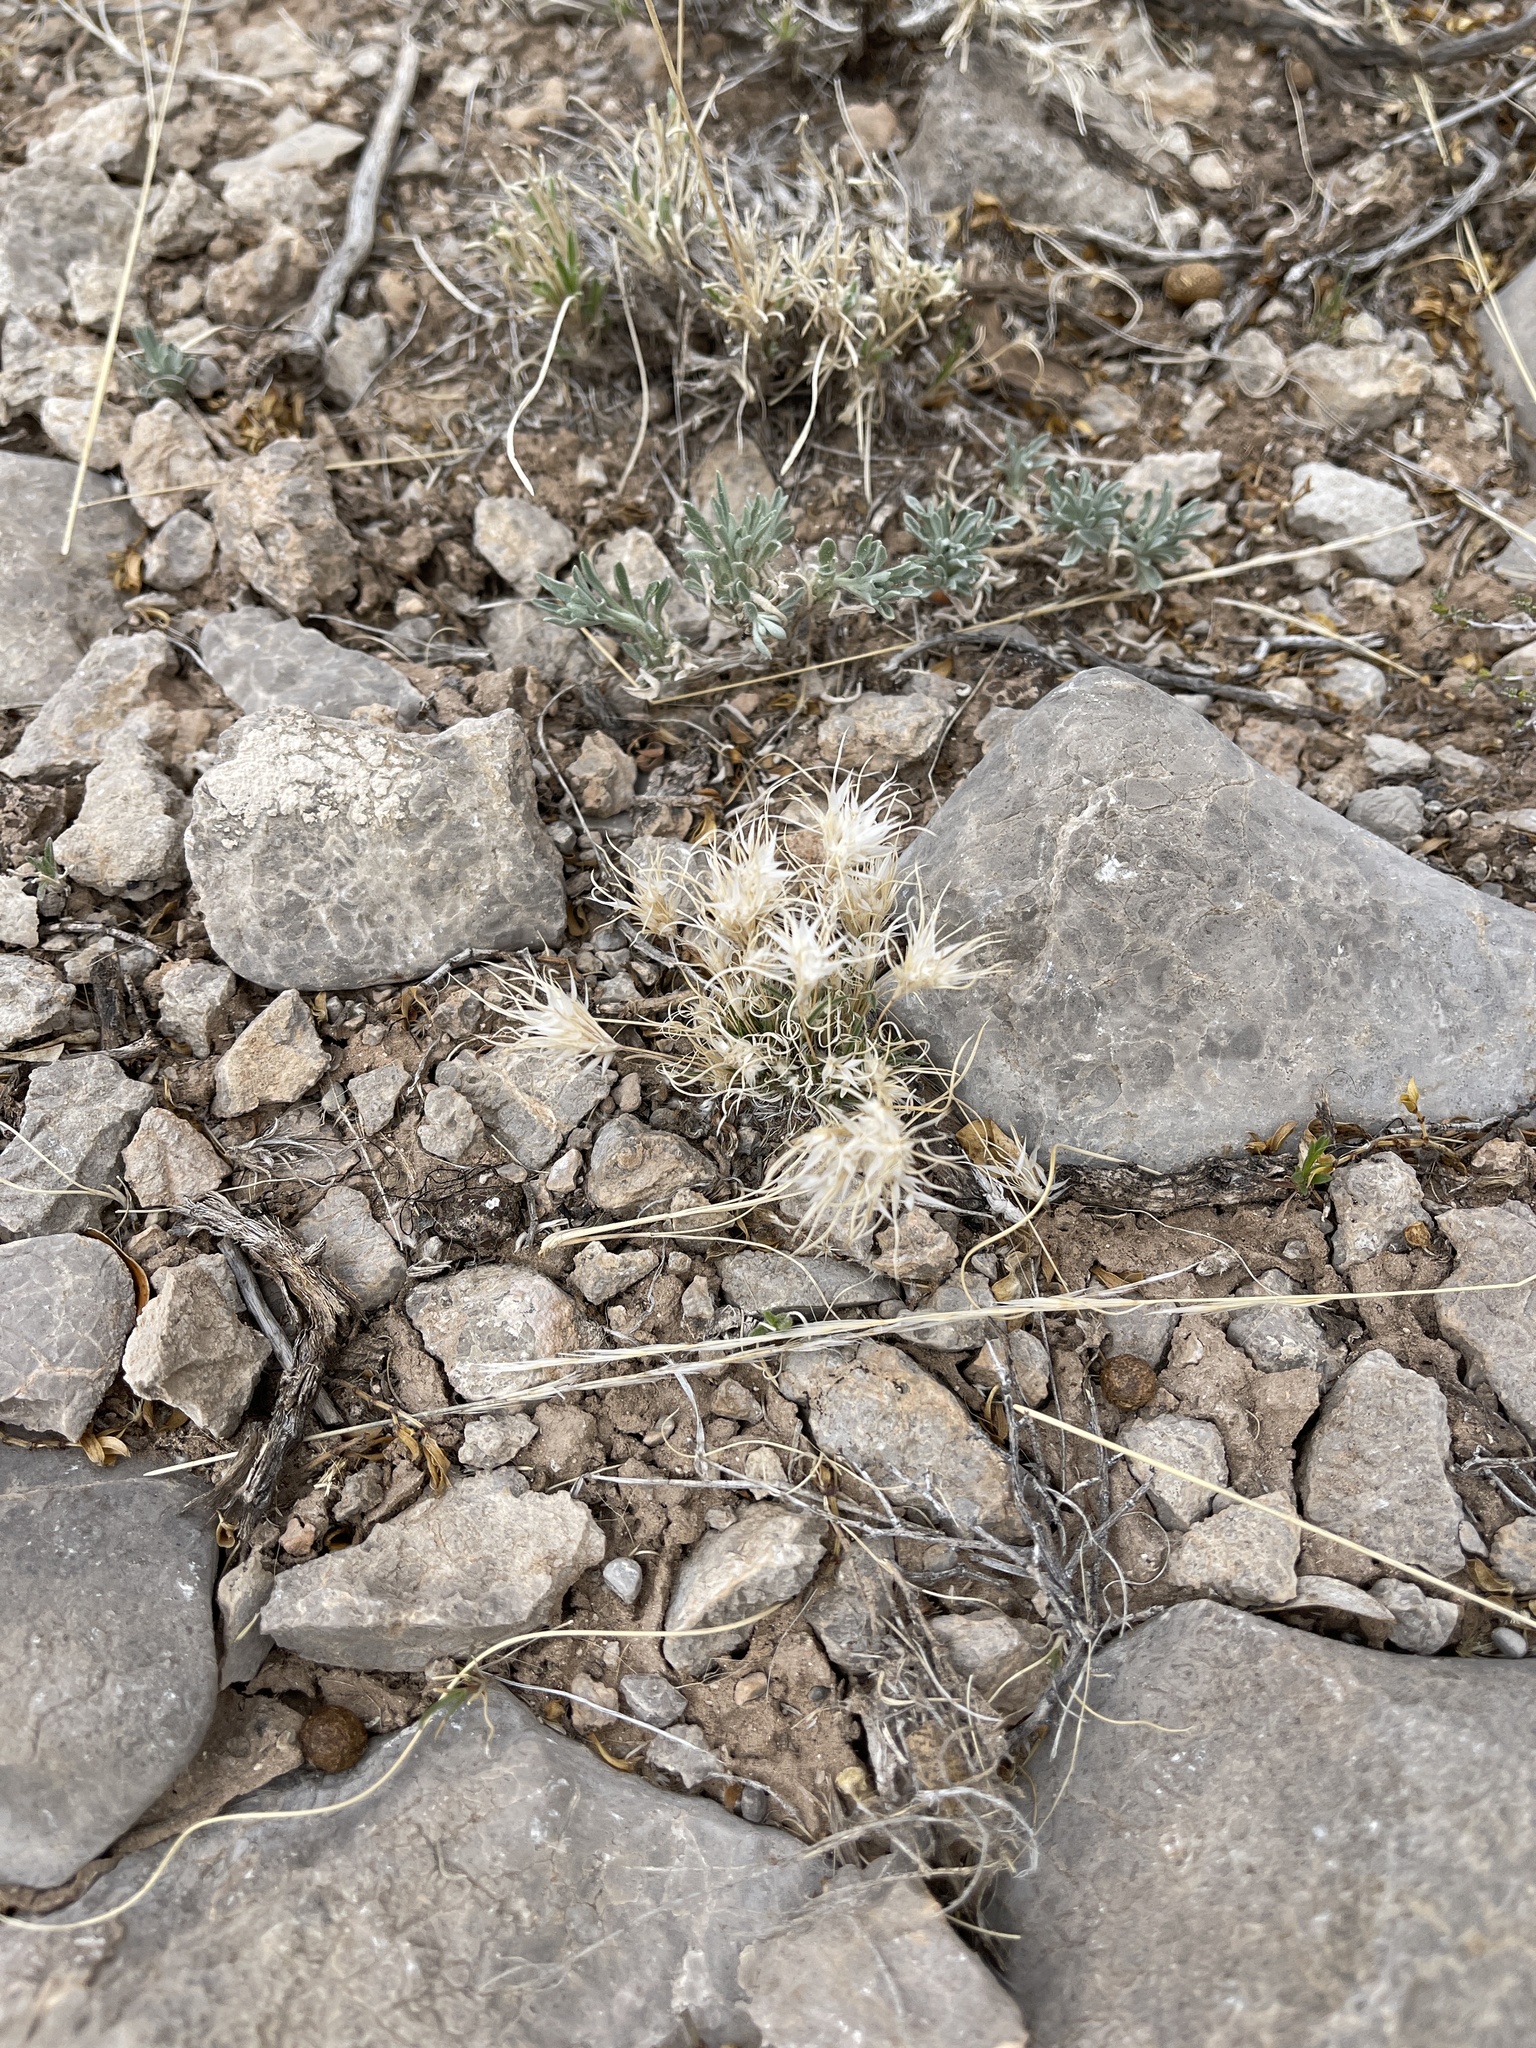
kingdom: Plantae
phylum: Tracheophyta
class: Liliopsida
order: Poales
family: Poaceae
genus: Dasyochloa
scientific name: Dasyochloa pulchella
